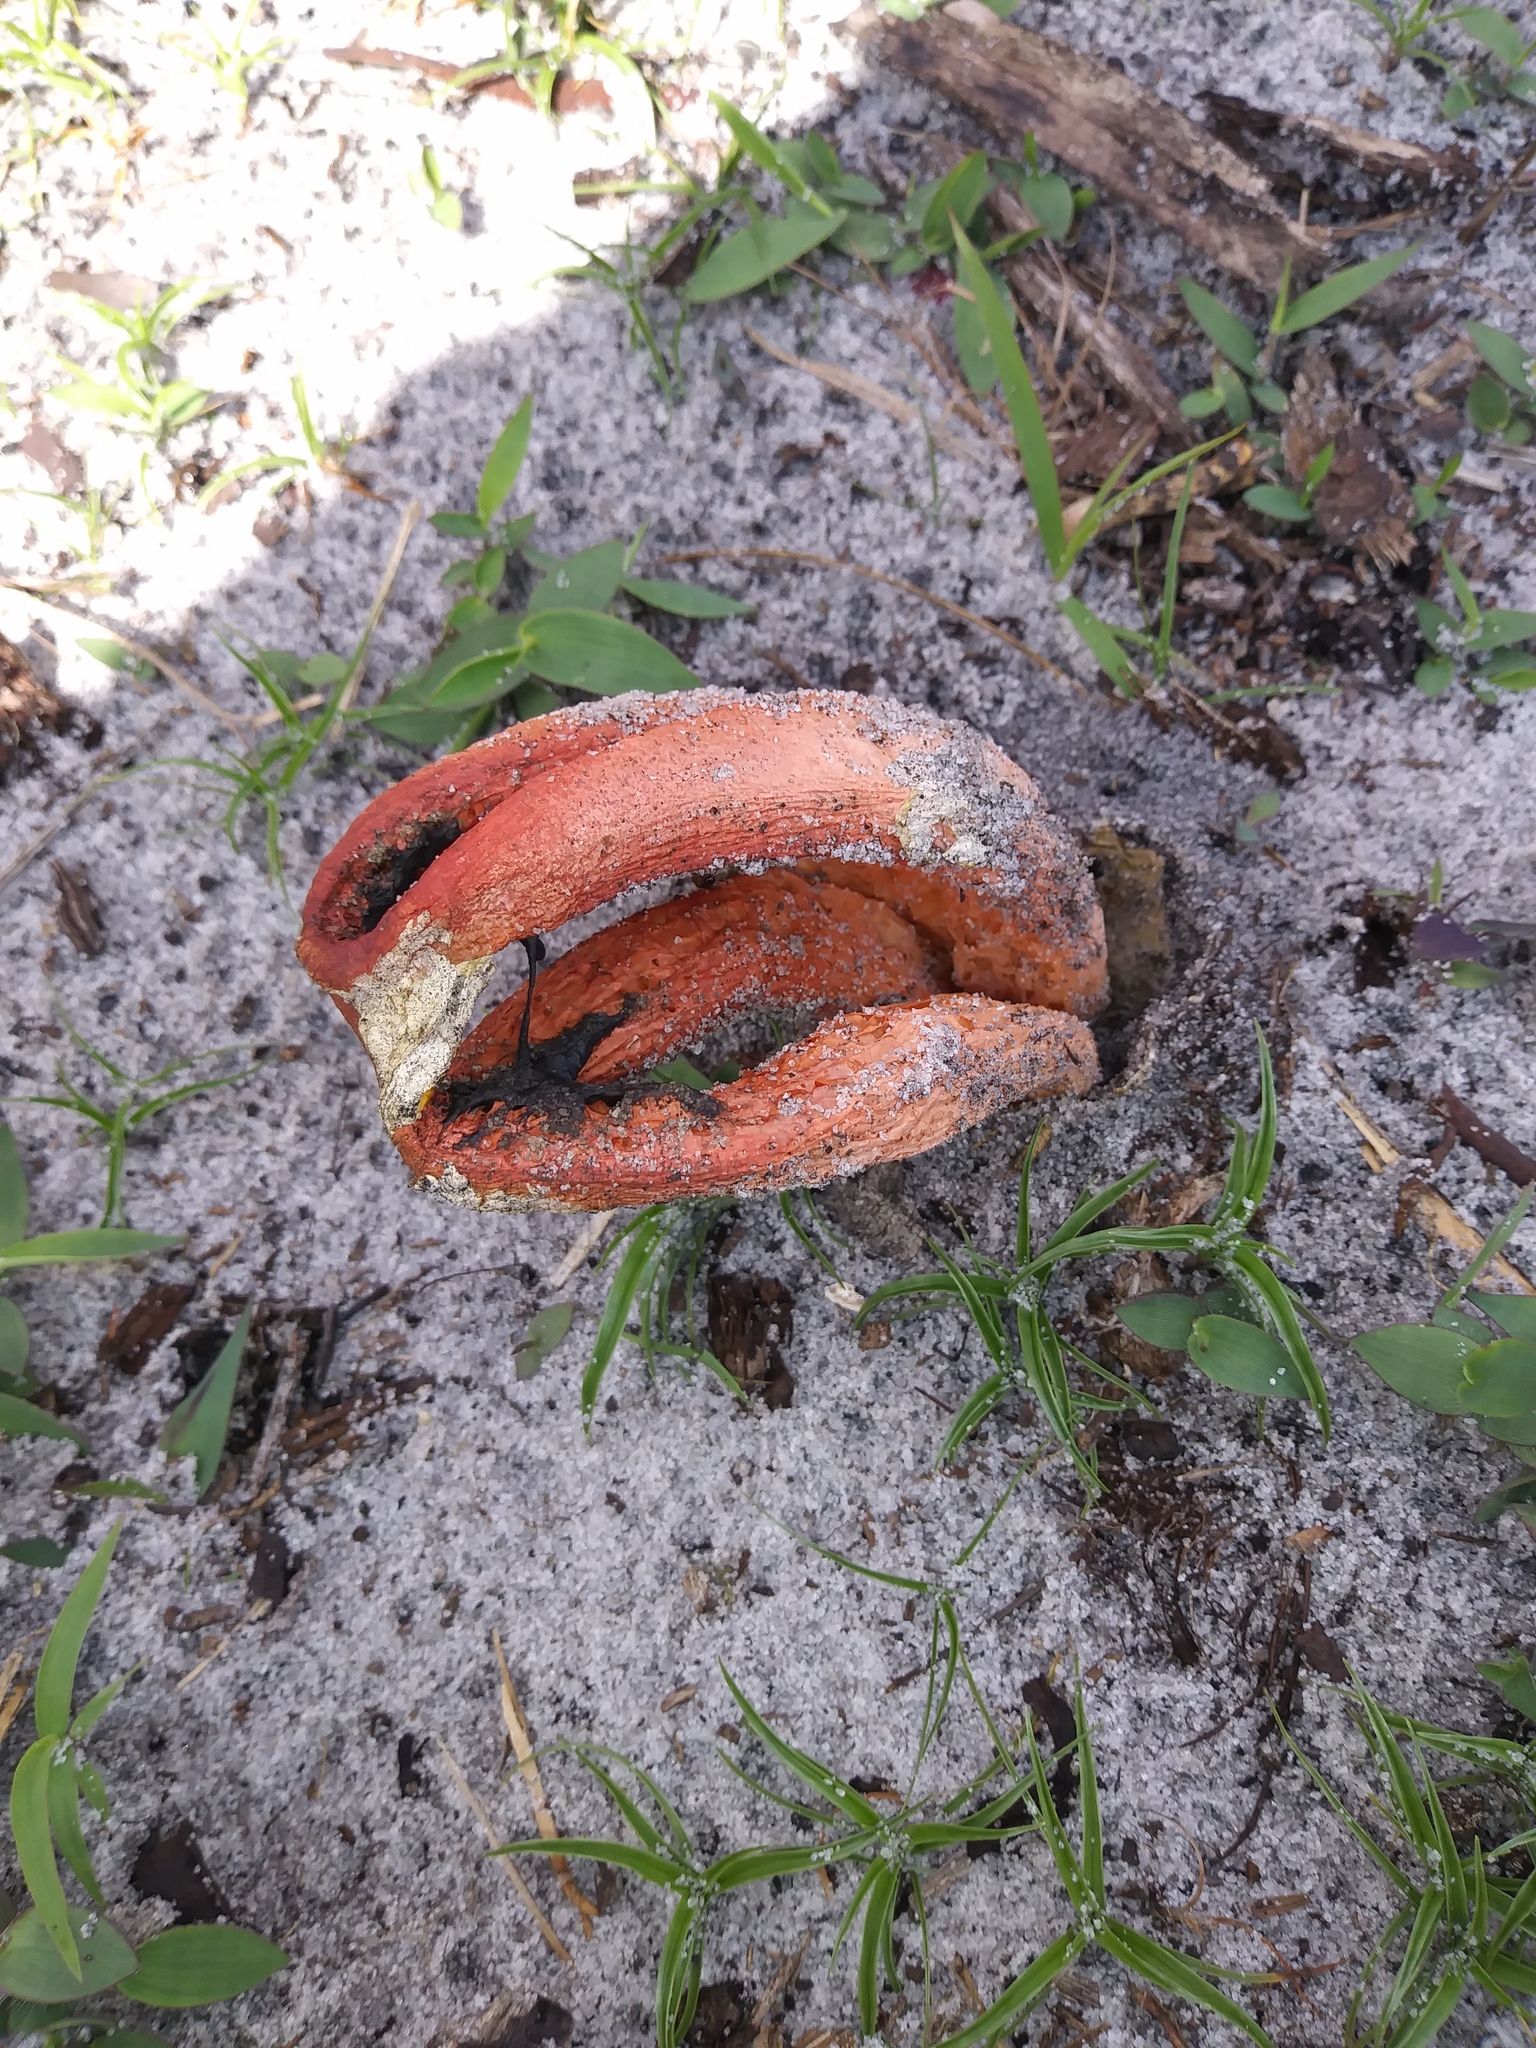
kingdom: Fungi
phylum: Basidiomycota
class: Agaricomycetes
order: Phallales
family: Phallaceae
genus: Clathrus
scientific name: Clathrus columnatus
